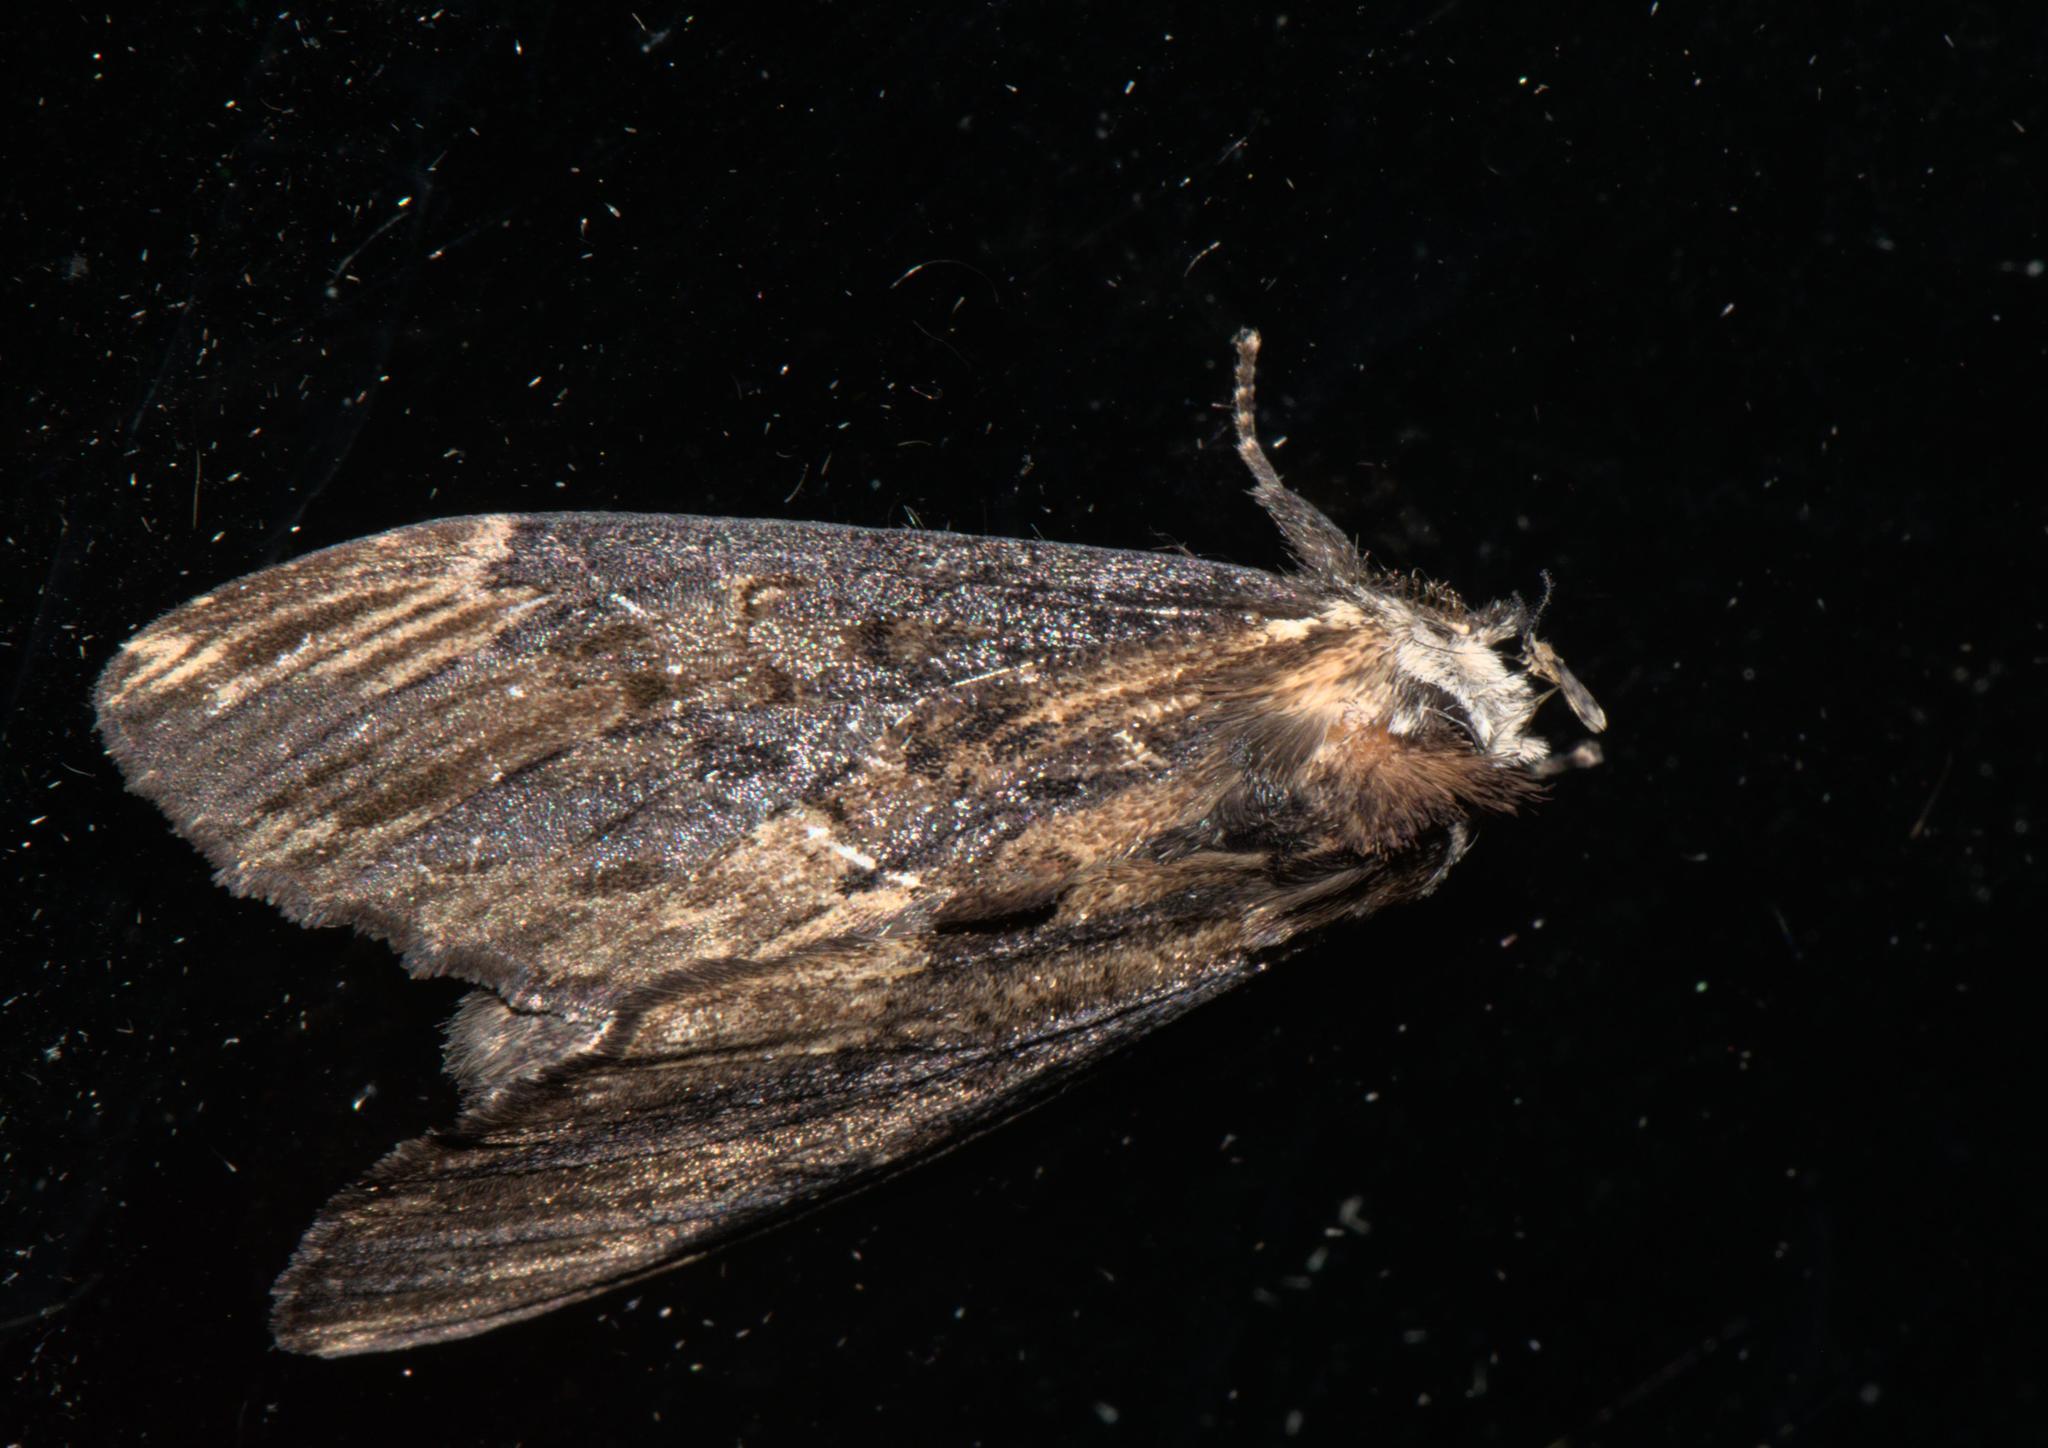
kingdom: Animalia
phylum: Arthropoda
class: Insecta
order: Lepidoptera
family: Notodontidae
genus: Allodonta
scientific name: Allodonta collaris
